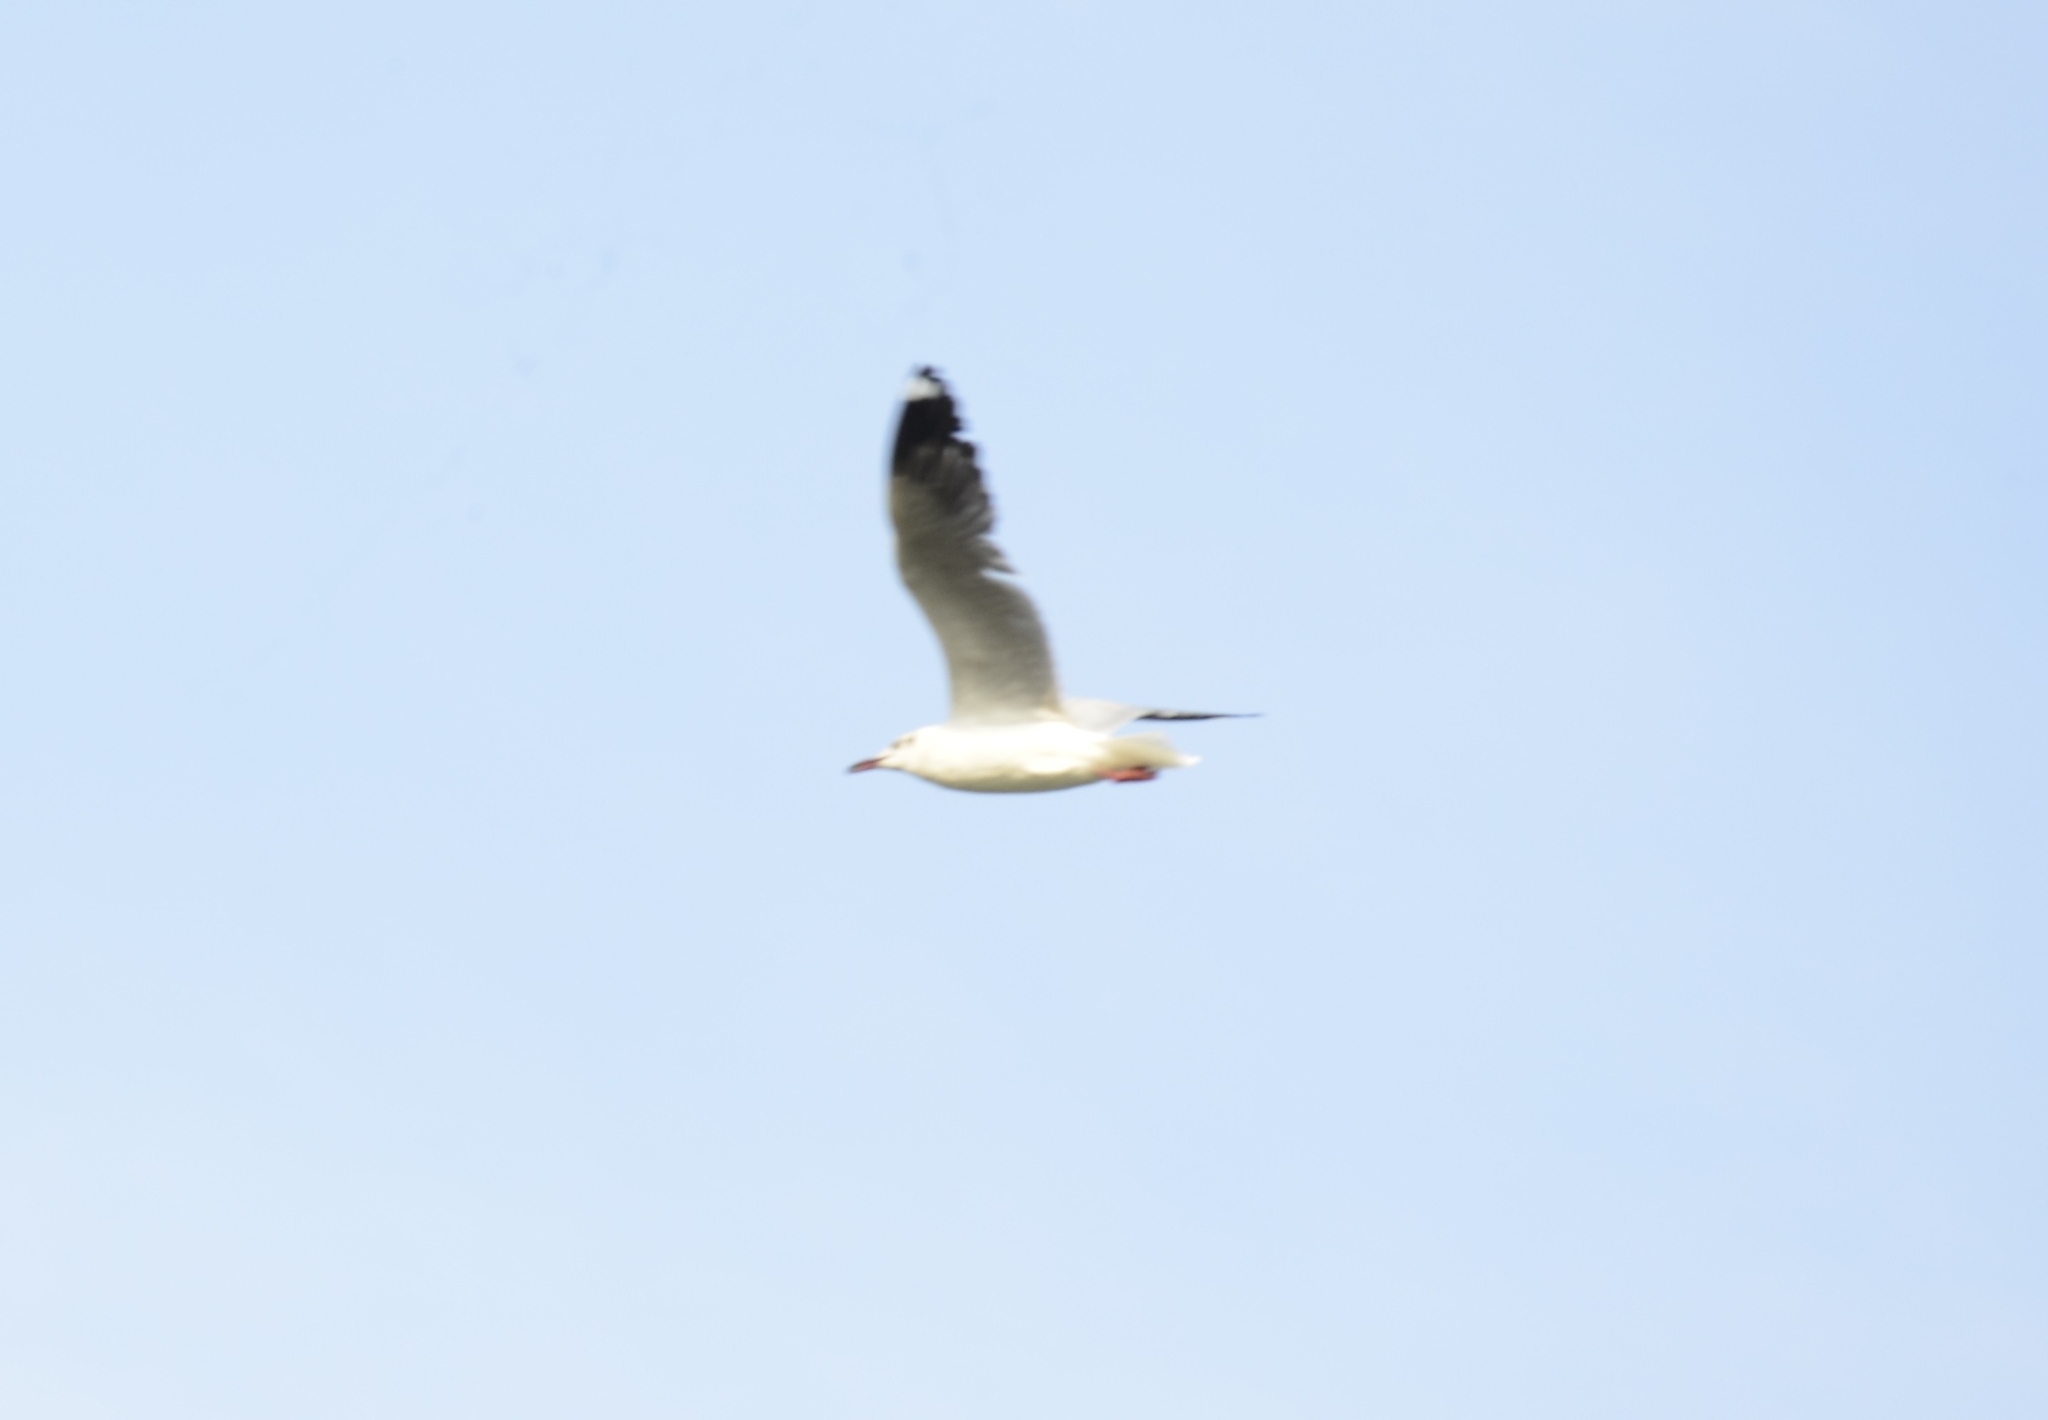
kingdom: Animalia
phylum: Chordata
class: Aves
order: Charadriiformes
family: Laridae
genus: Chroicocephalus
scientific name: Chroicocephalus brunnicephalus
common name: Brown-headed gull
